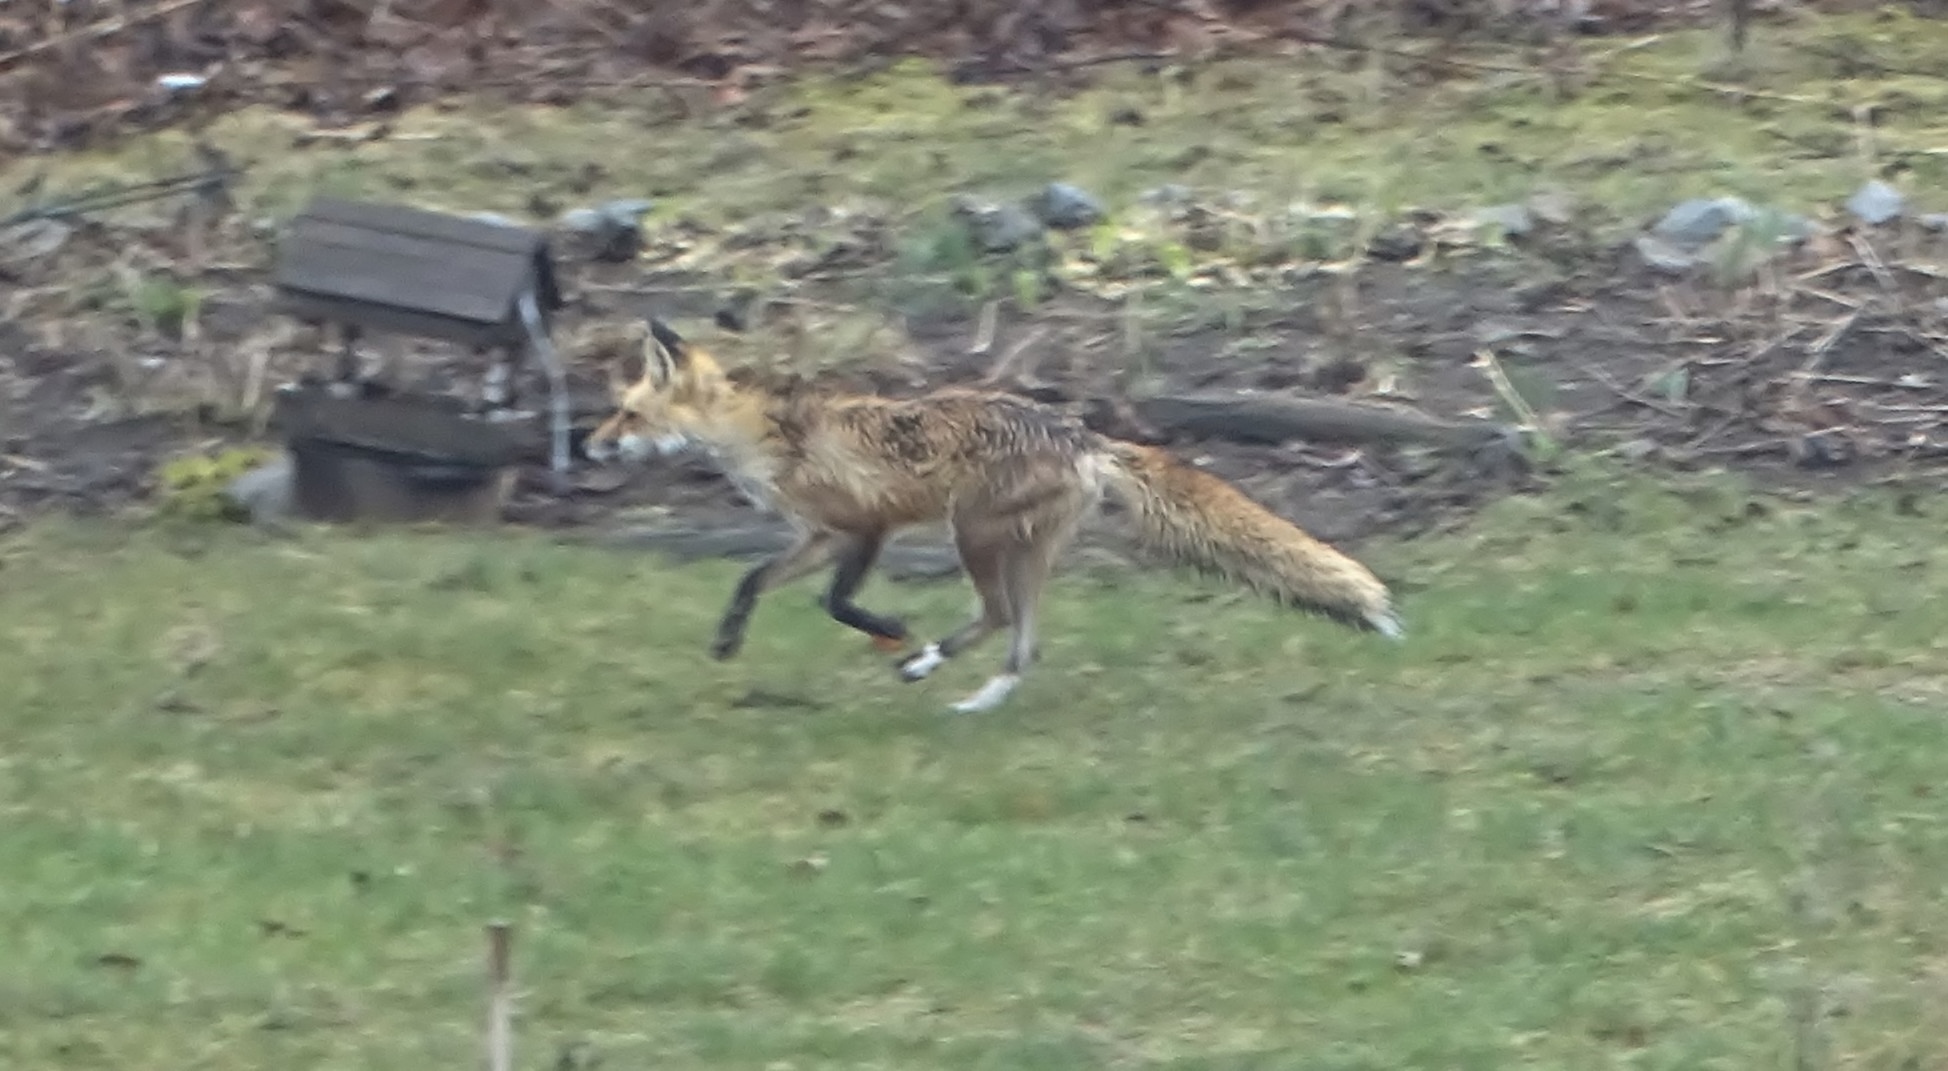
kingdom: Animalia
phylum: Chordata
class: Mammalia
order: Carnivora
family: Canidae
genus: Vulpes
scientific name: Vulpes vulpes
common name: Red fox
